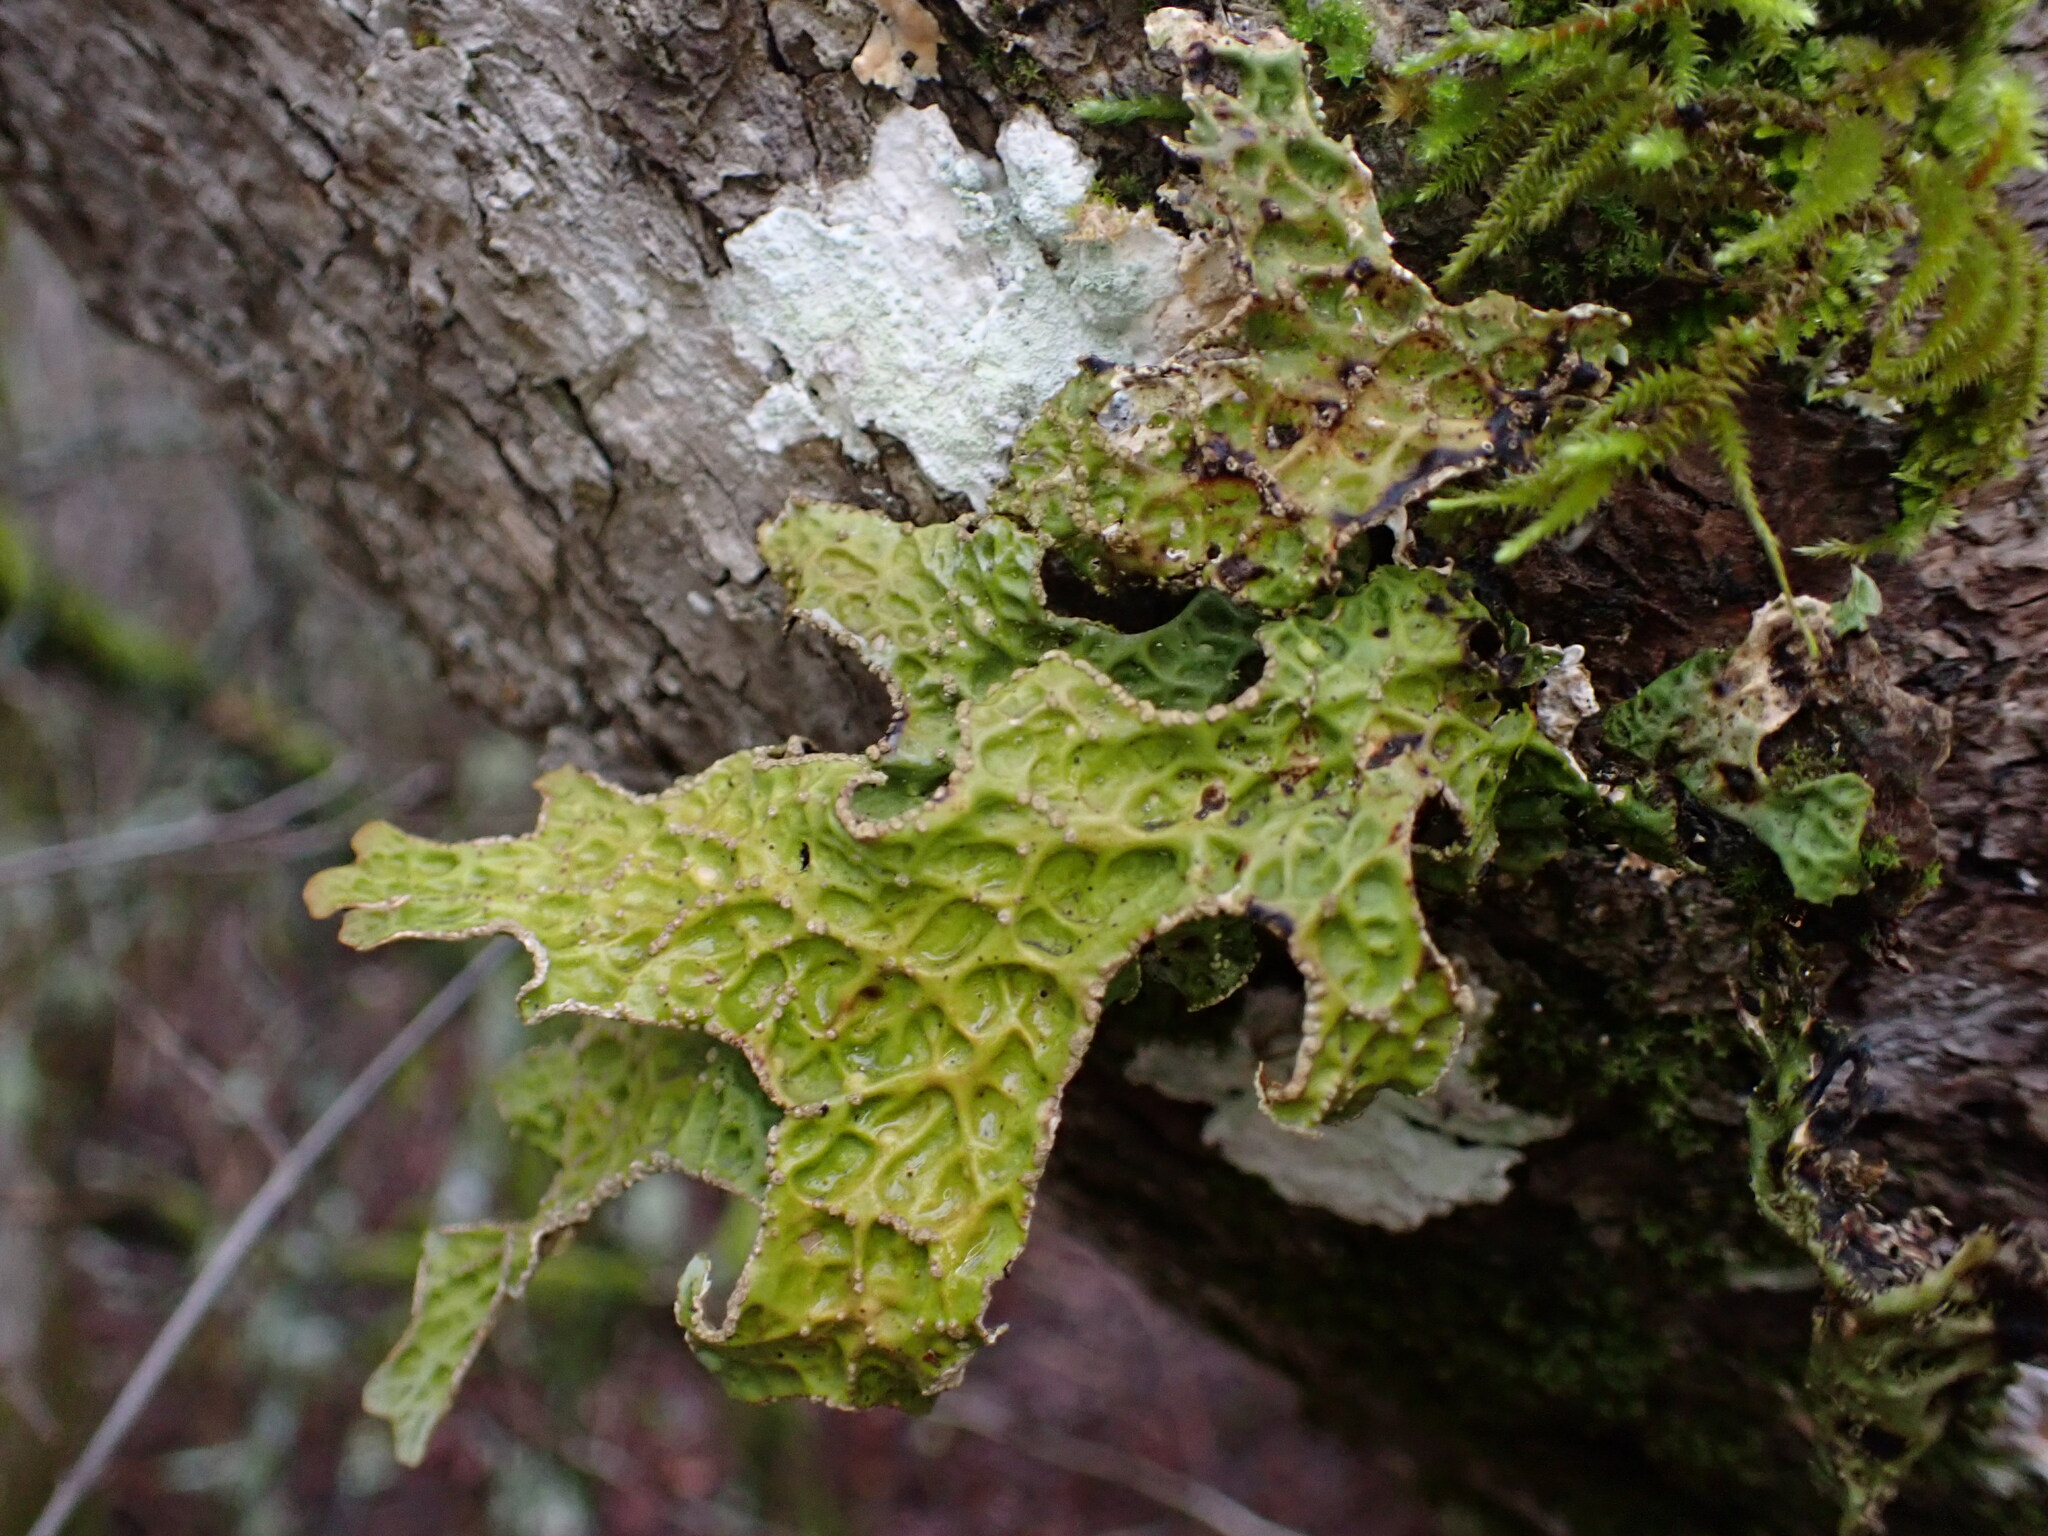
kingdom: Fungi
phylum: Ascomycota
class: Lecanoromycetes
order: Peltigerales
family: Lobariaceae
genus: Lobaria
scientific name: Lobaria pulmonaria
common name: Lungwort
